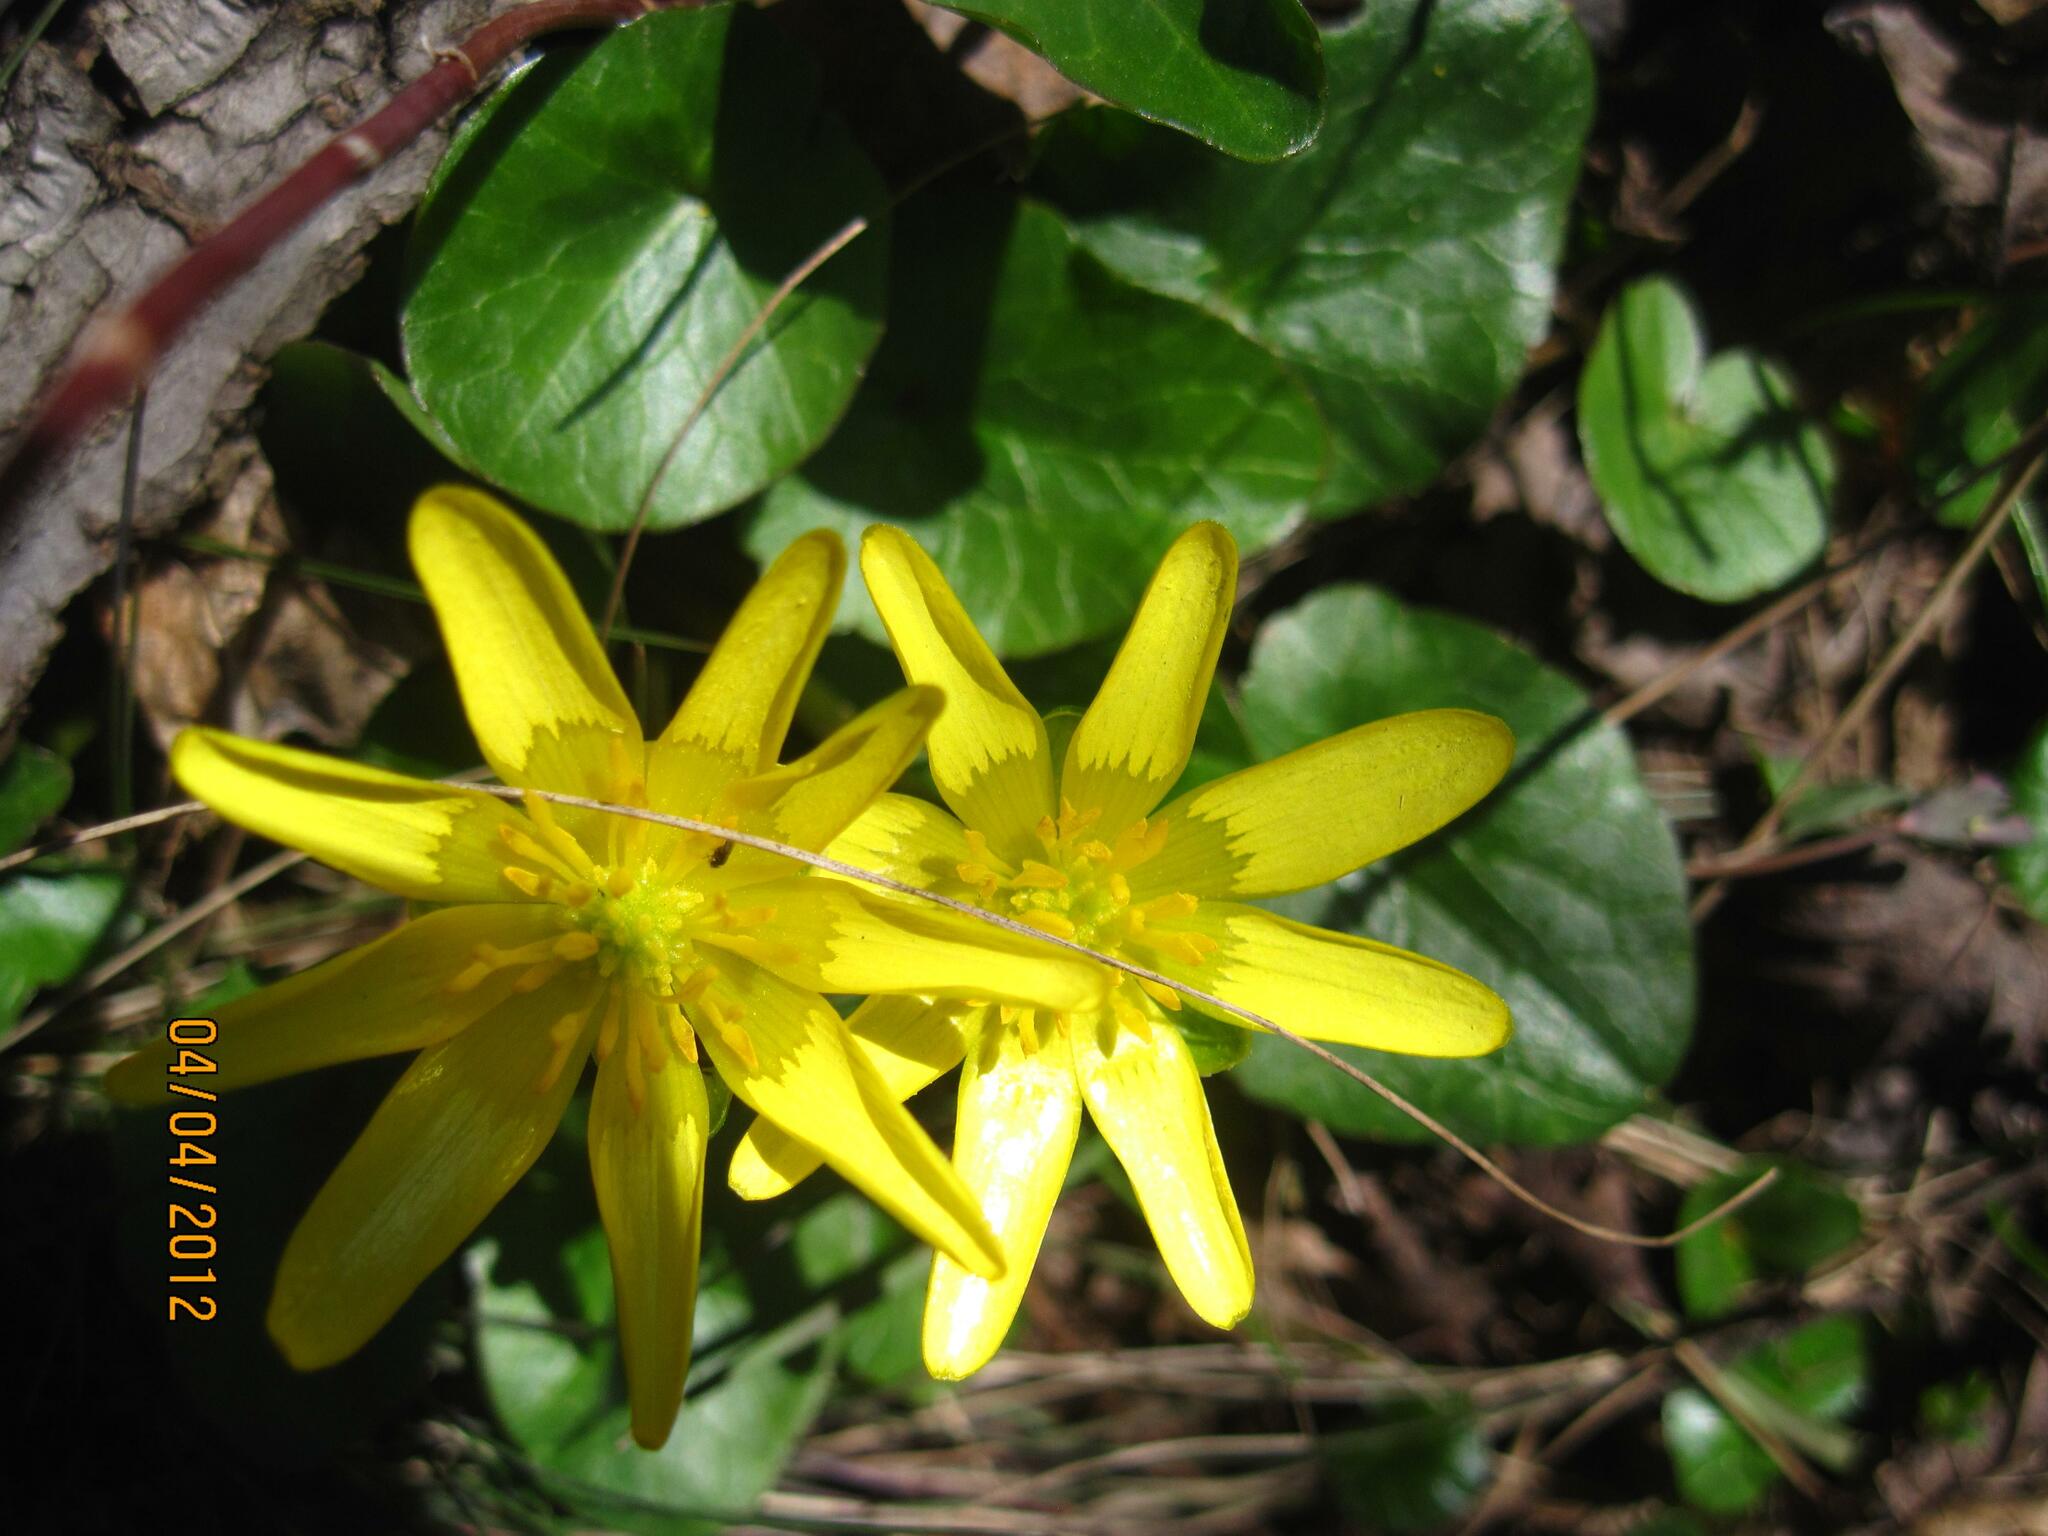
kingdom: Plantae
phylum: Tracheophyta
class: Magnoliopsida
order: Ranunculales
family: Ranunculaceae
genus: Ficaria
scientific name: Ficaria verna
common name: Lesser celandine
